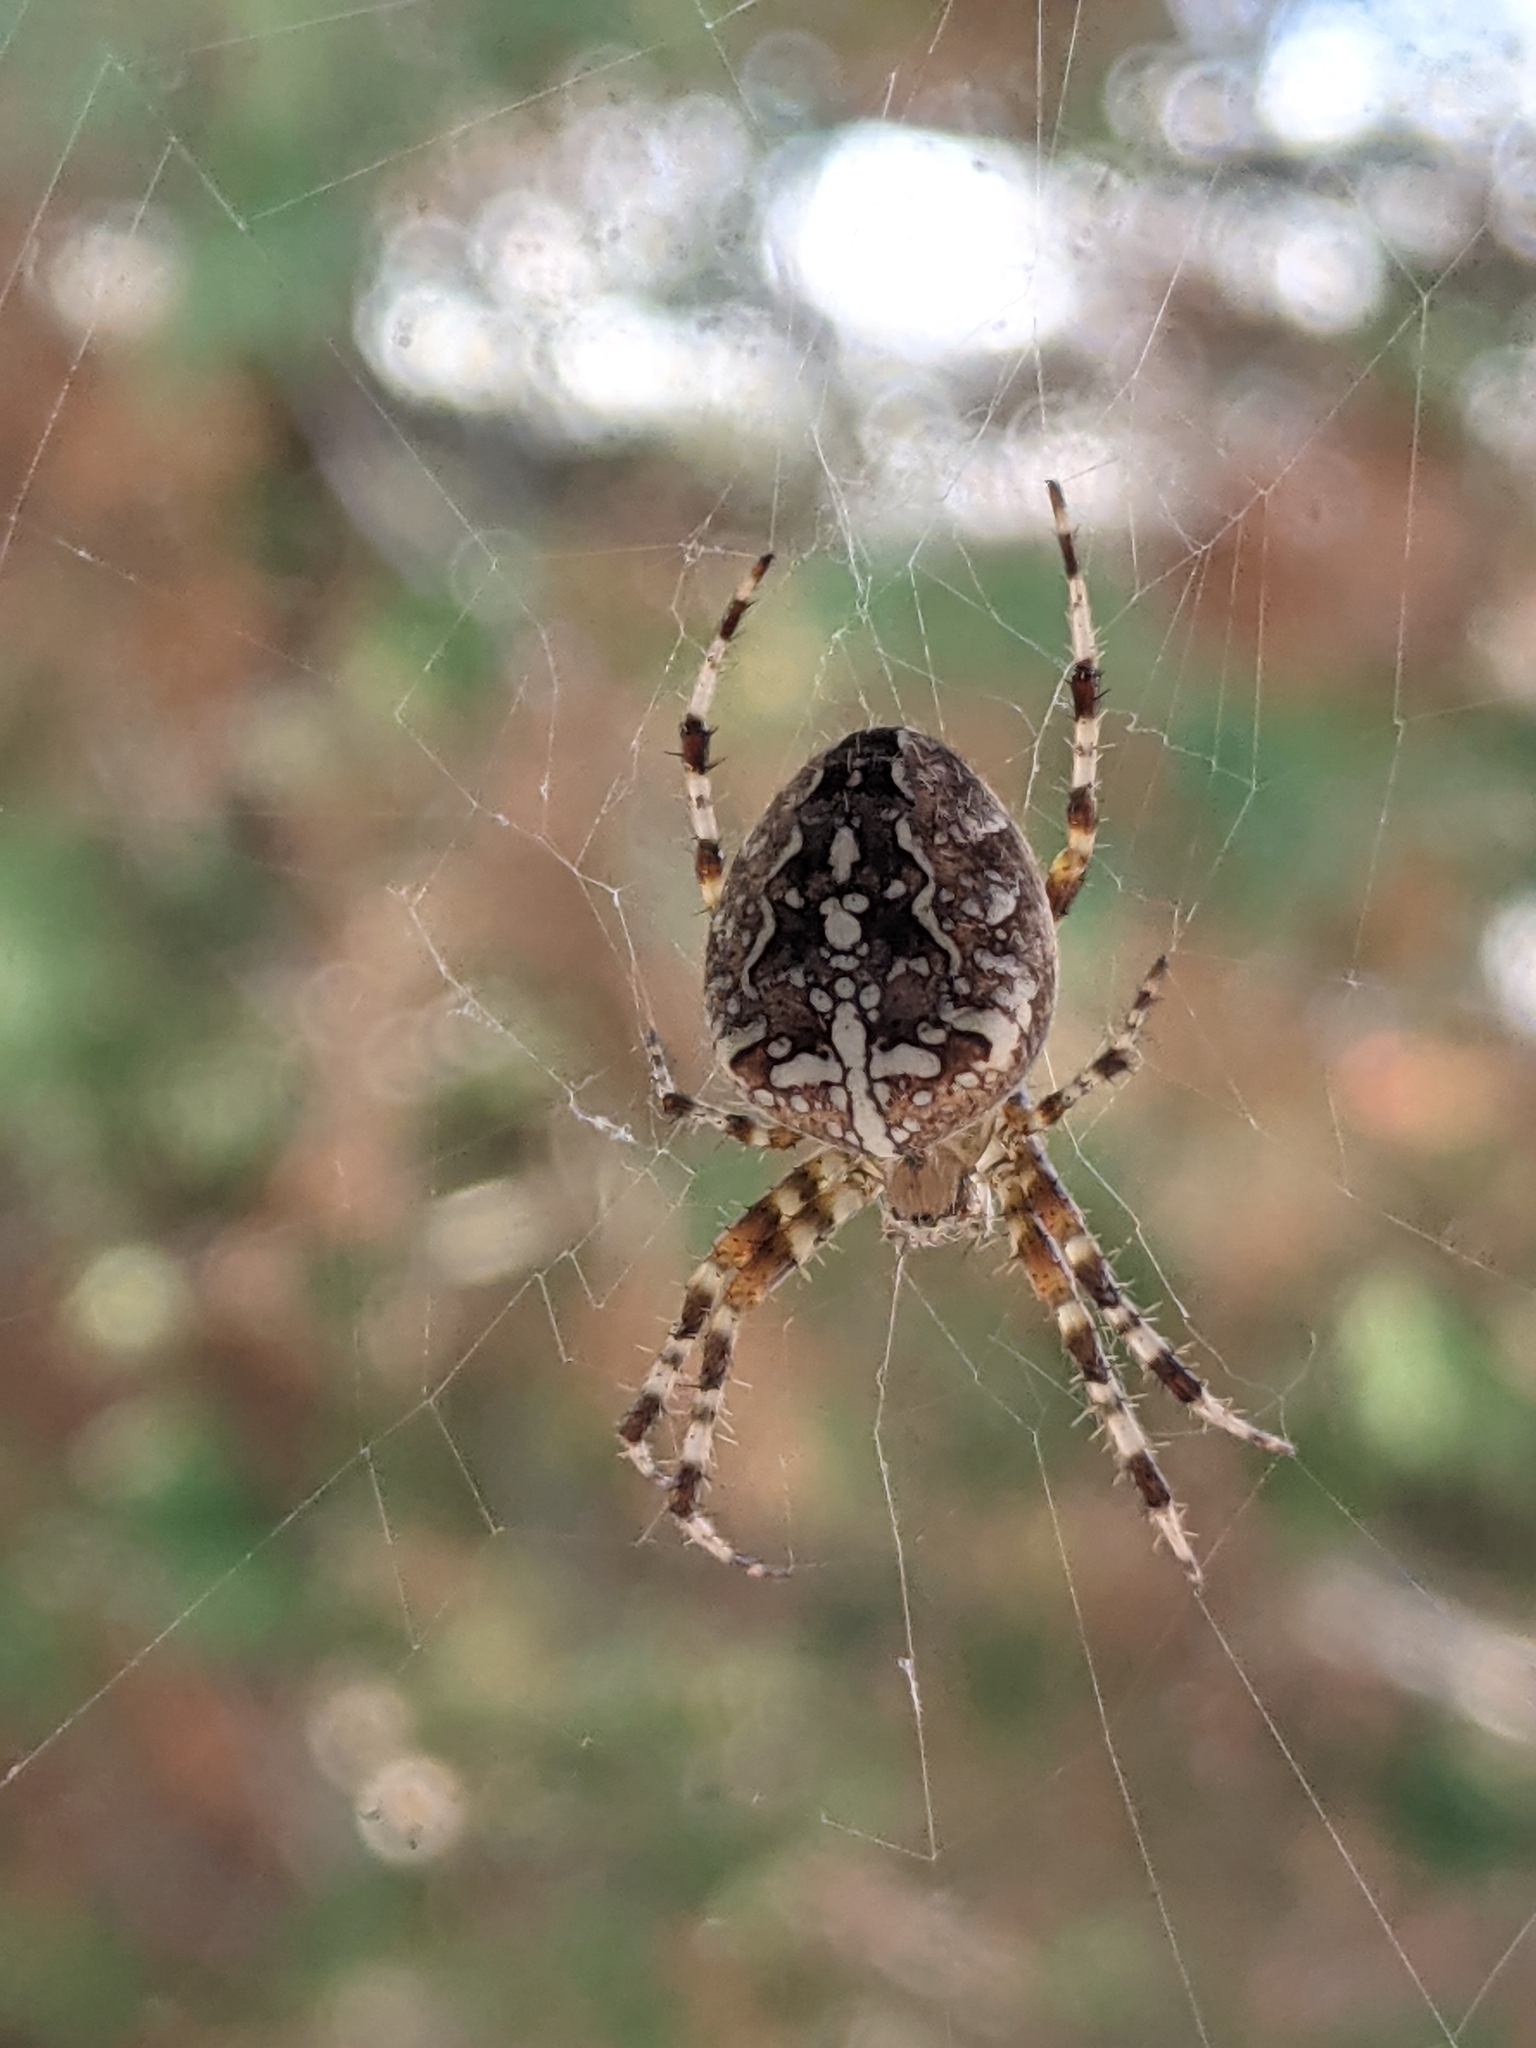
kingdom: Animalia
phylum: Arthropoda
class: Arachnida
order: Araneae
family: Araneidae
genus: Araneus
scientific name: Araneus diadematus
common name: Cross orbweaver
